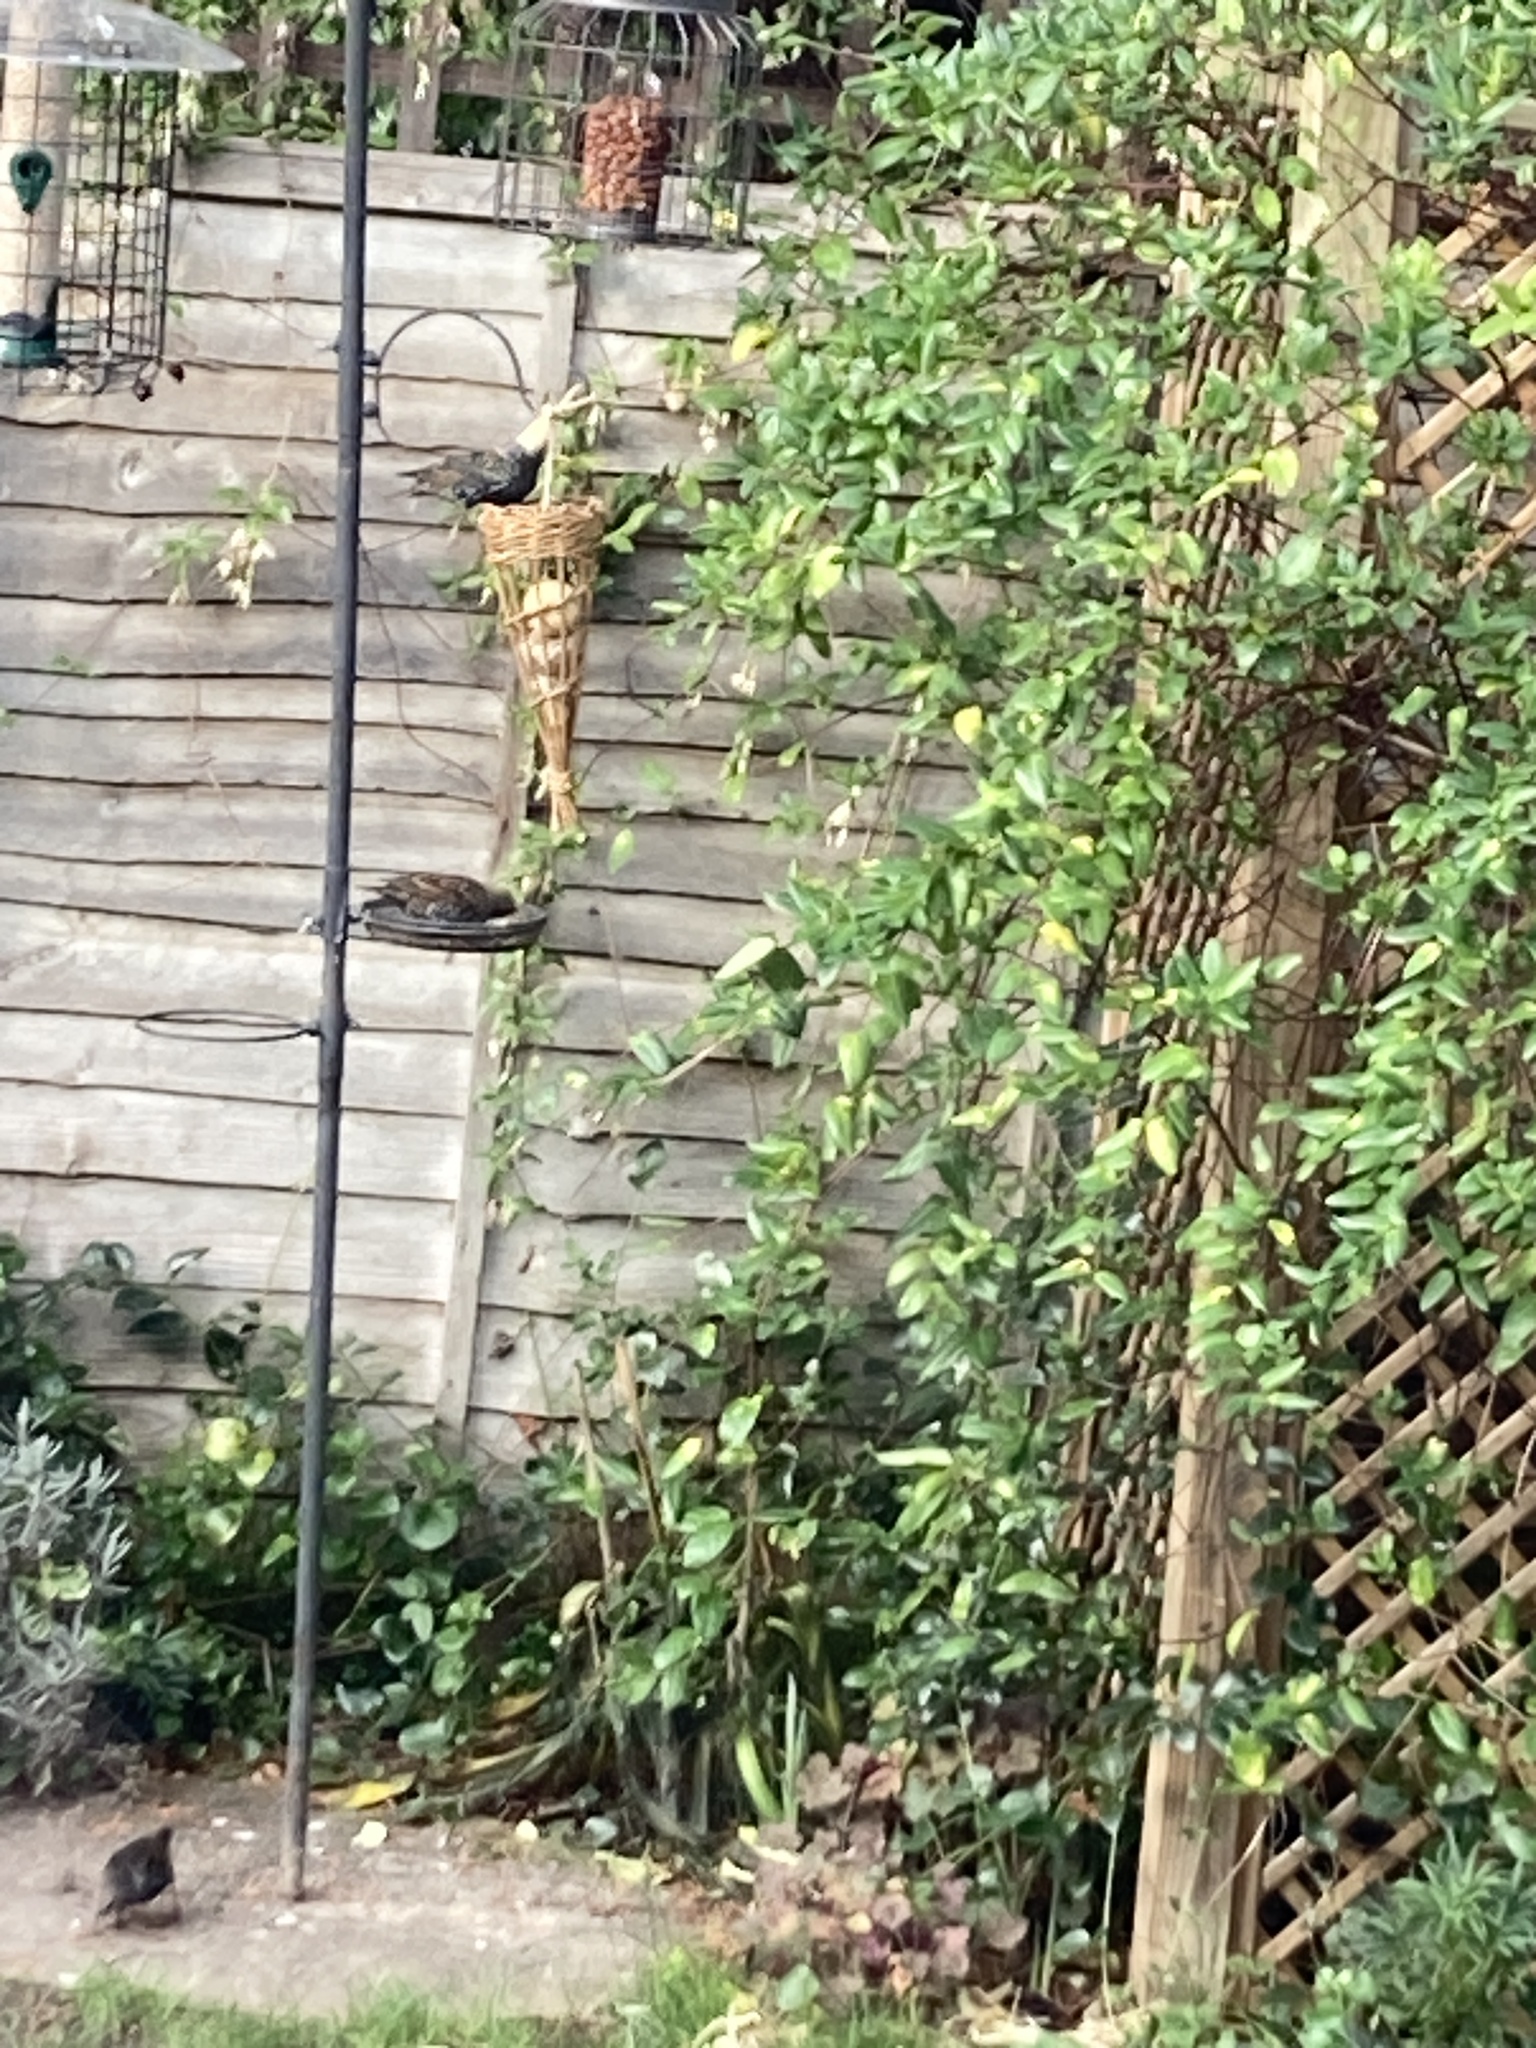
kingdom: Animalia
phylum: Chordata
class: Aves
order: Passeriformes
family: Sturnidae
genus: Sturnus
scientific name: Sturnus vulgaris
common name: Common starling
